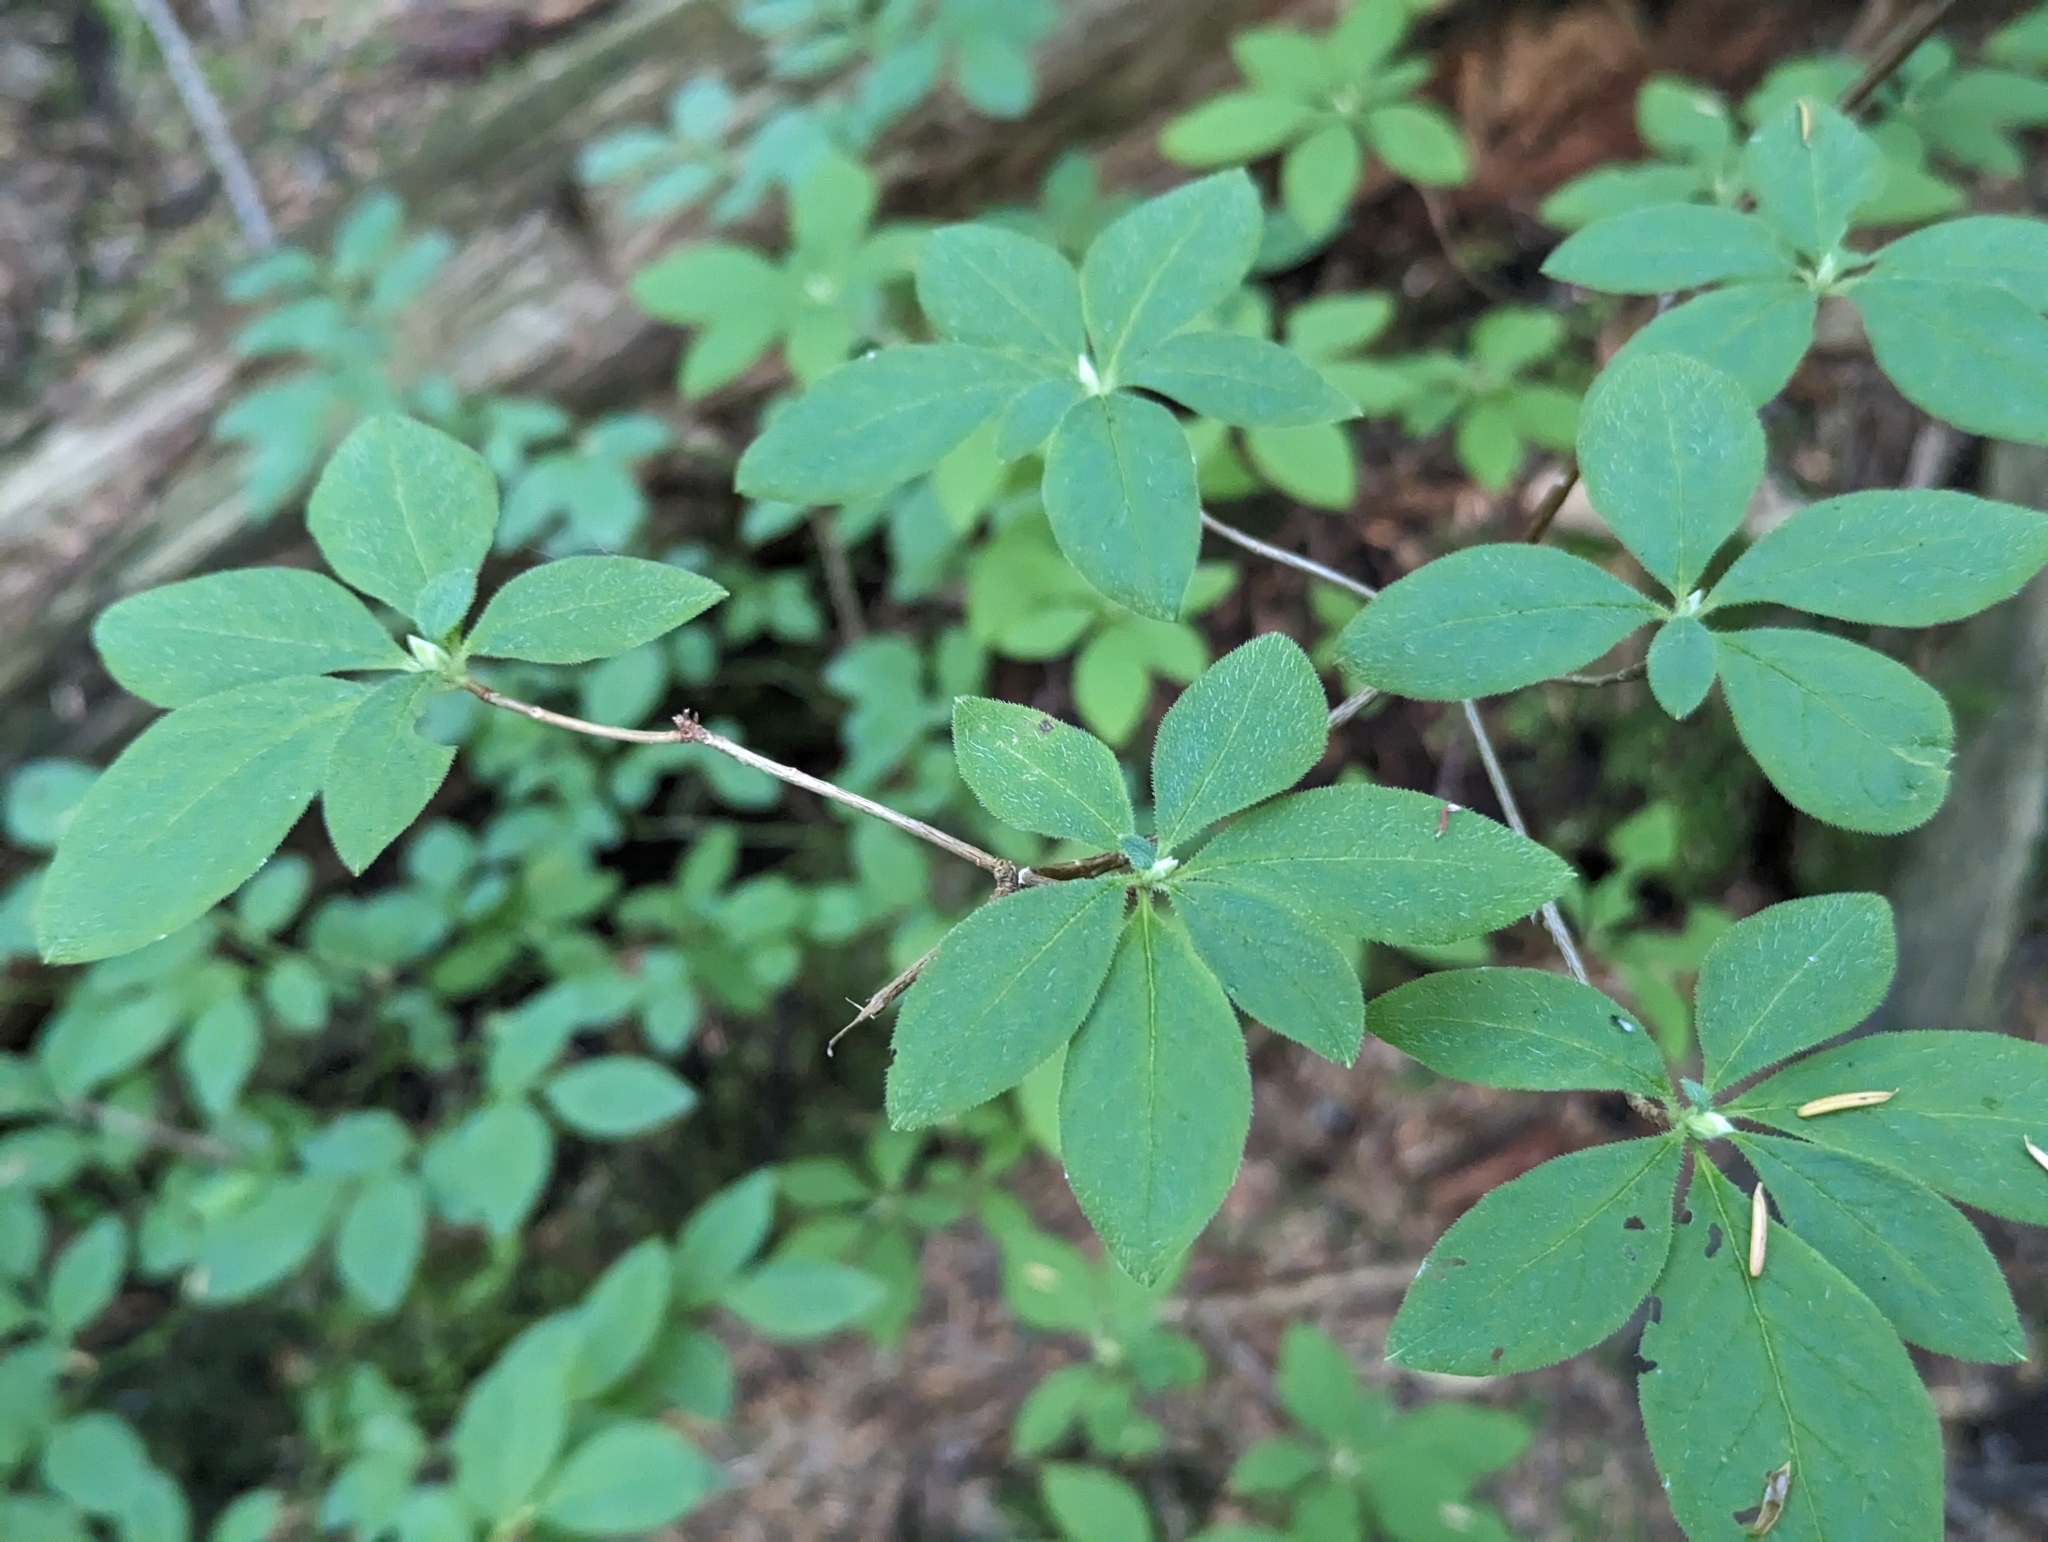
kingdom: Plantae
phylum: Tracheophyta
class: Magnoliopsida
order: Ericales
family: Ericaceae
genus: Rhododendron
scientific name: Rhododendron menziesii
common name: Pacific menziesia
